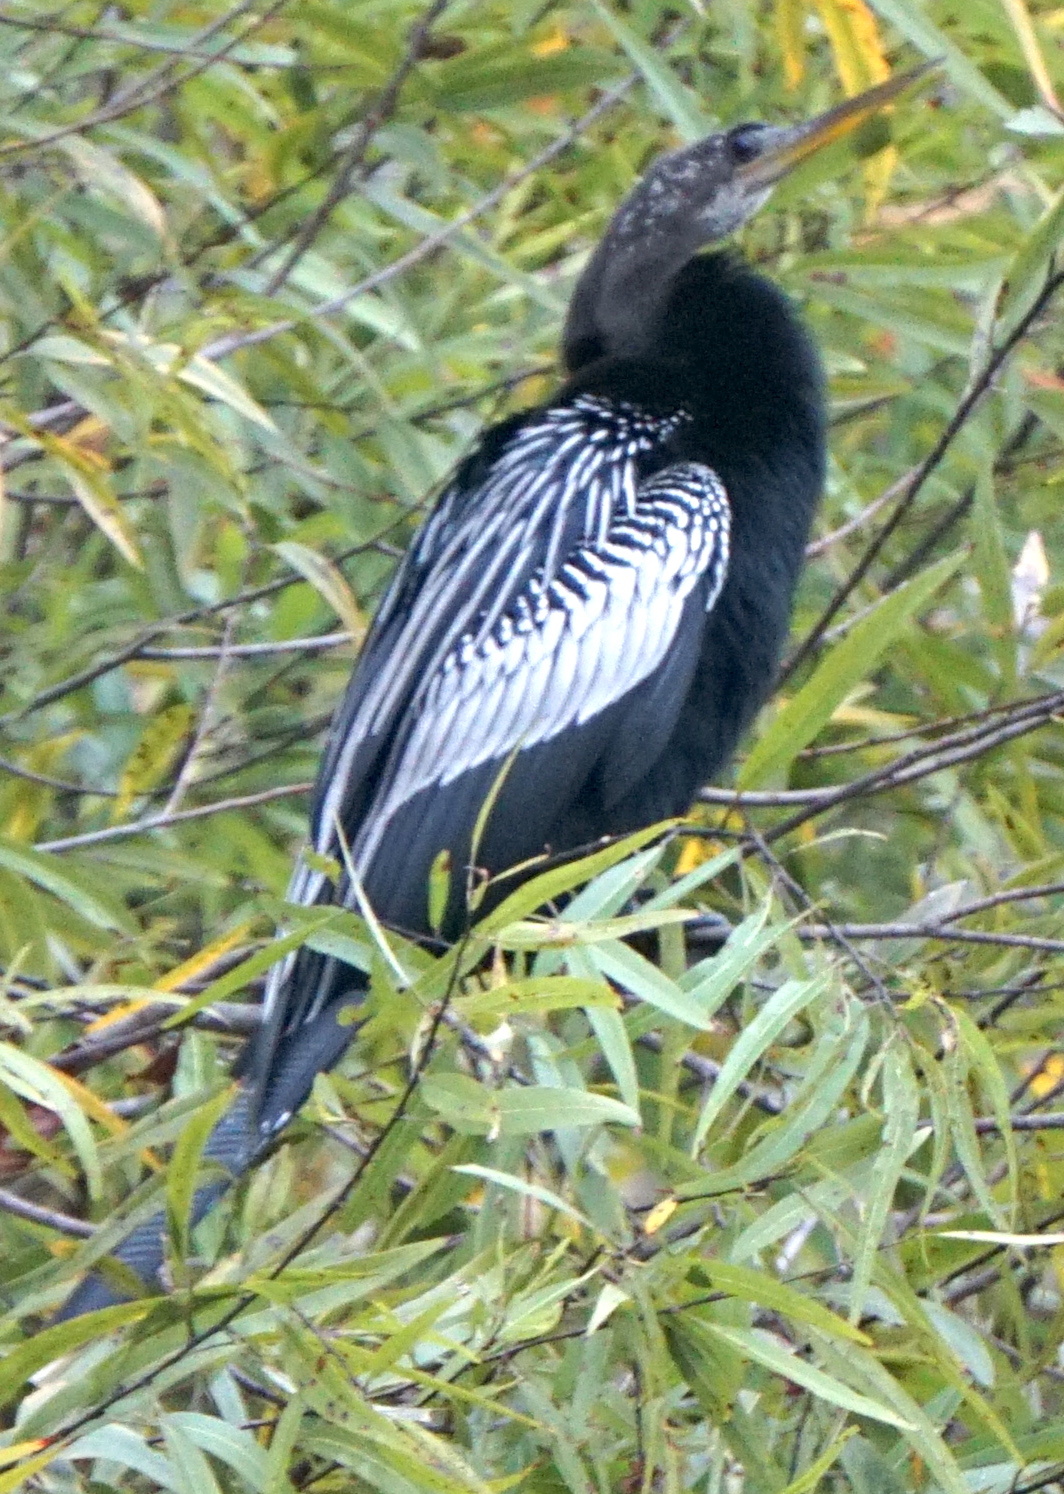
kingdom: Animalia
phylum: Chordata
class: Aves
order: Suliformes
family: Anhingidae
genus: Anhinga
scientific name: Anhinga anhinga
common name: Anhinga
